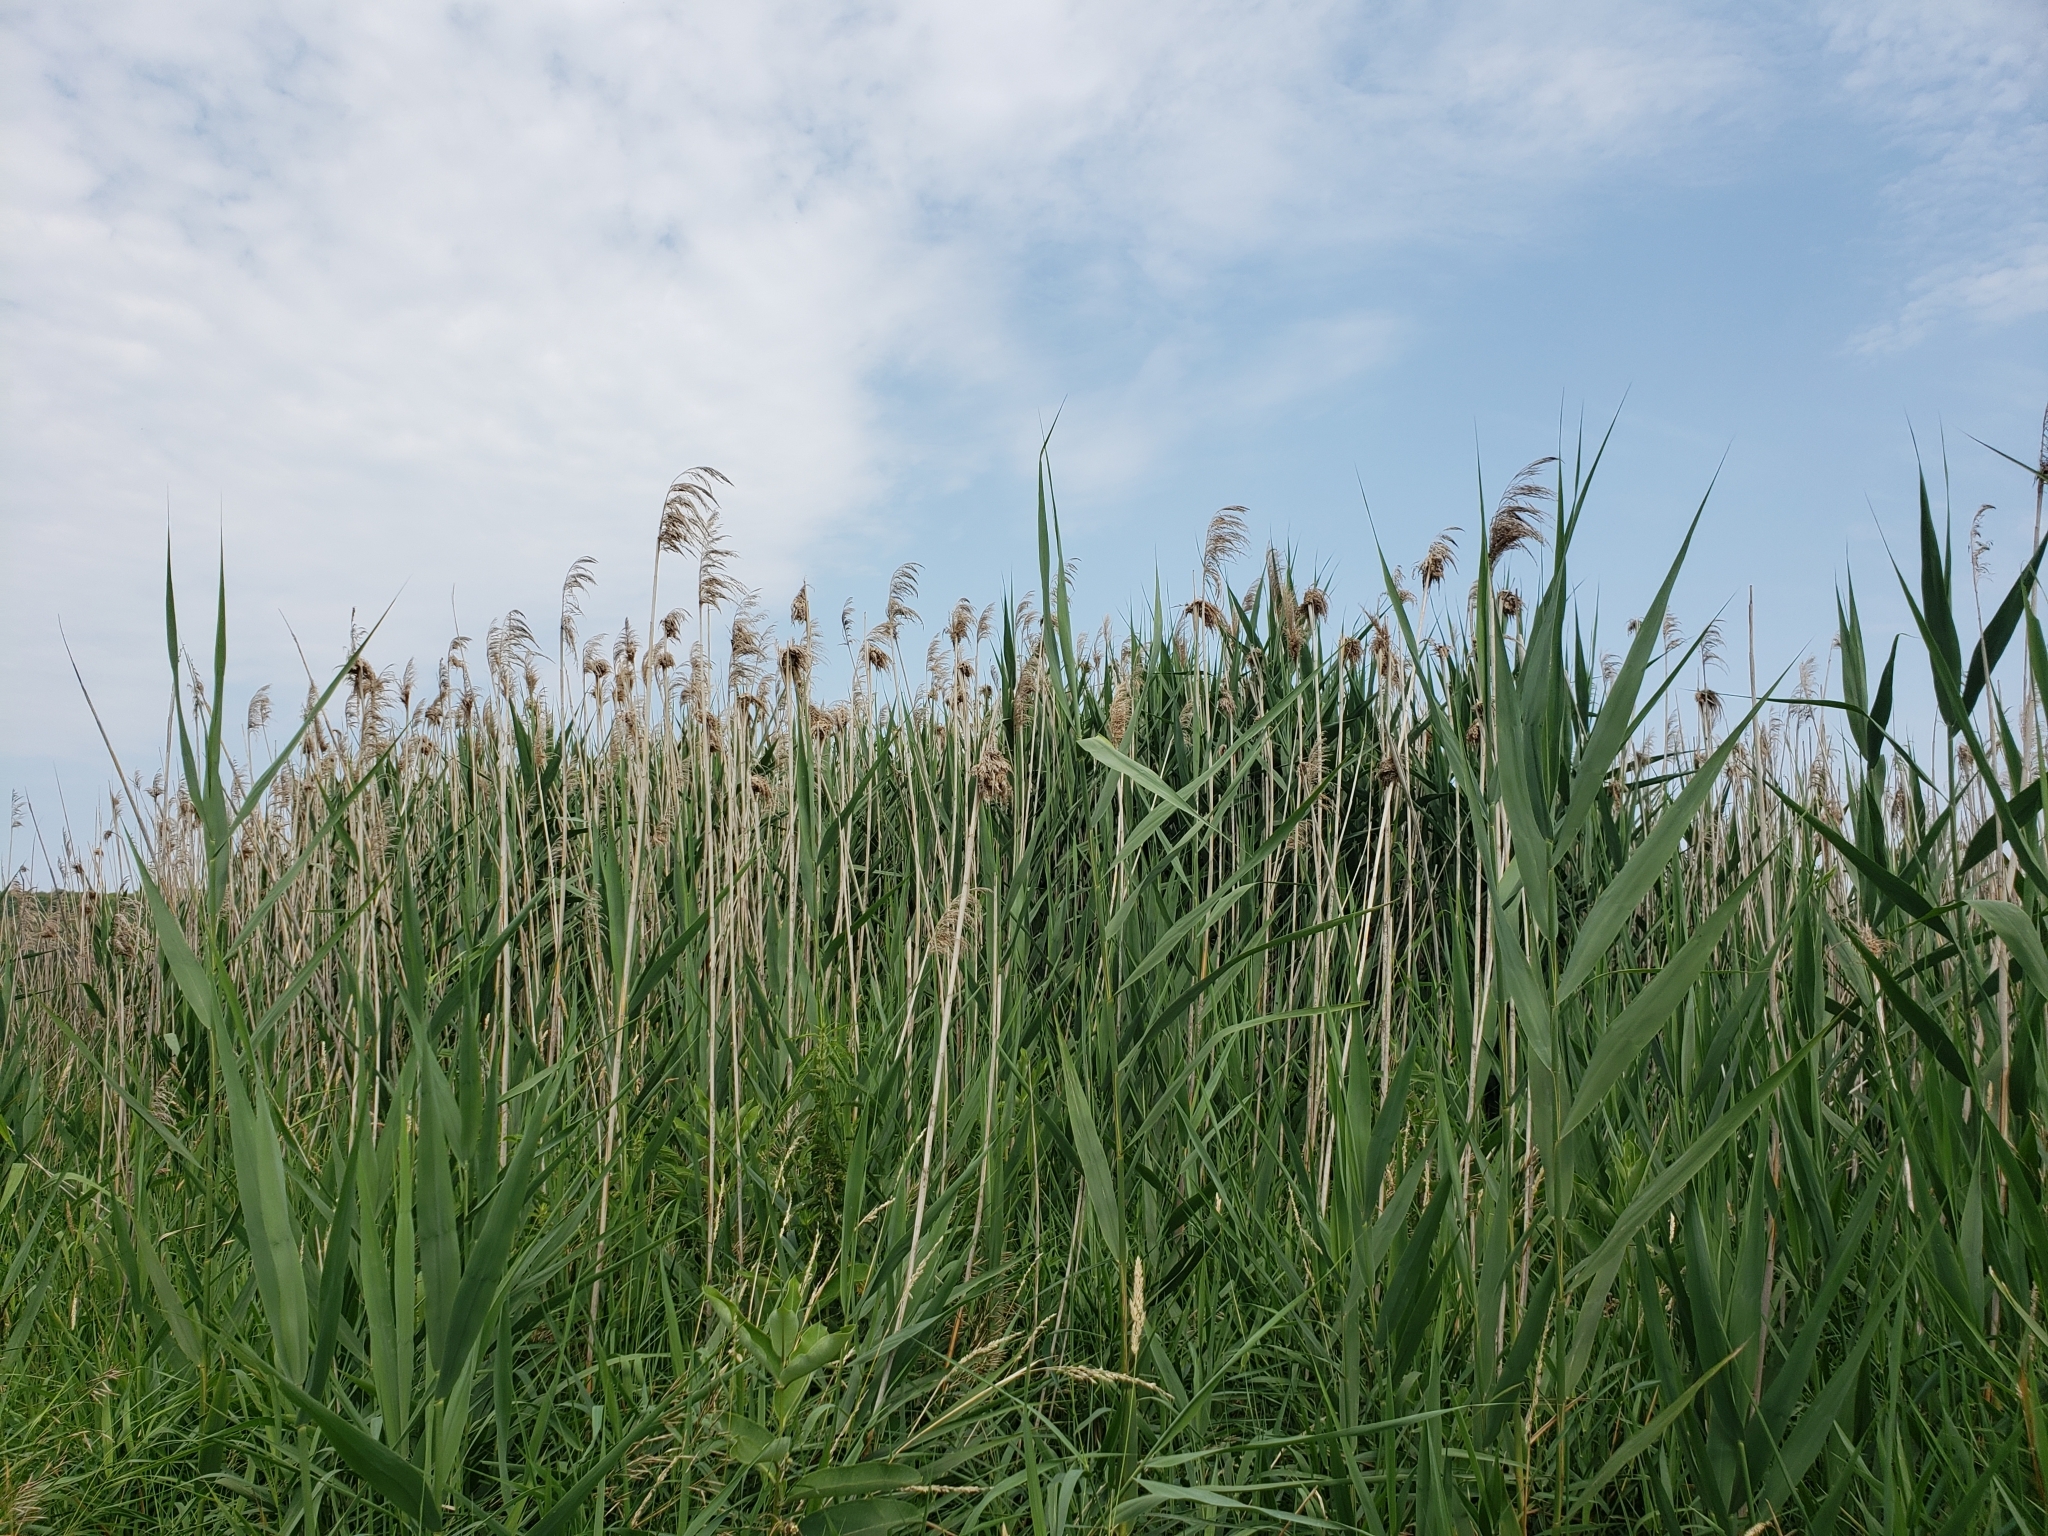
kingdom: Plantae
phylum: Tracheophyta
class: Liliopsida
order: Poales
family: Poaceae
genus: Phragmites
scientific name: Phragmites australis
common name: Common reed
